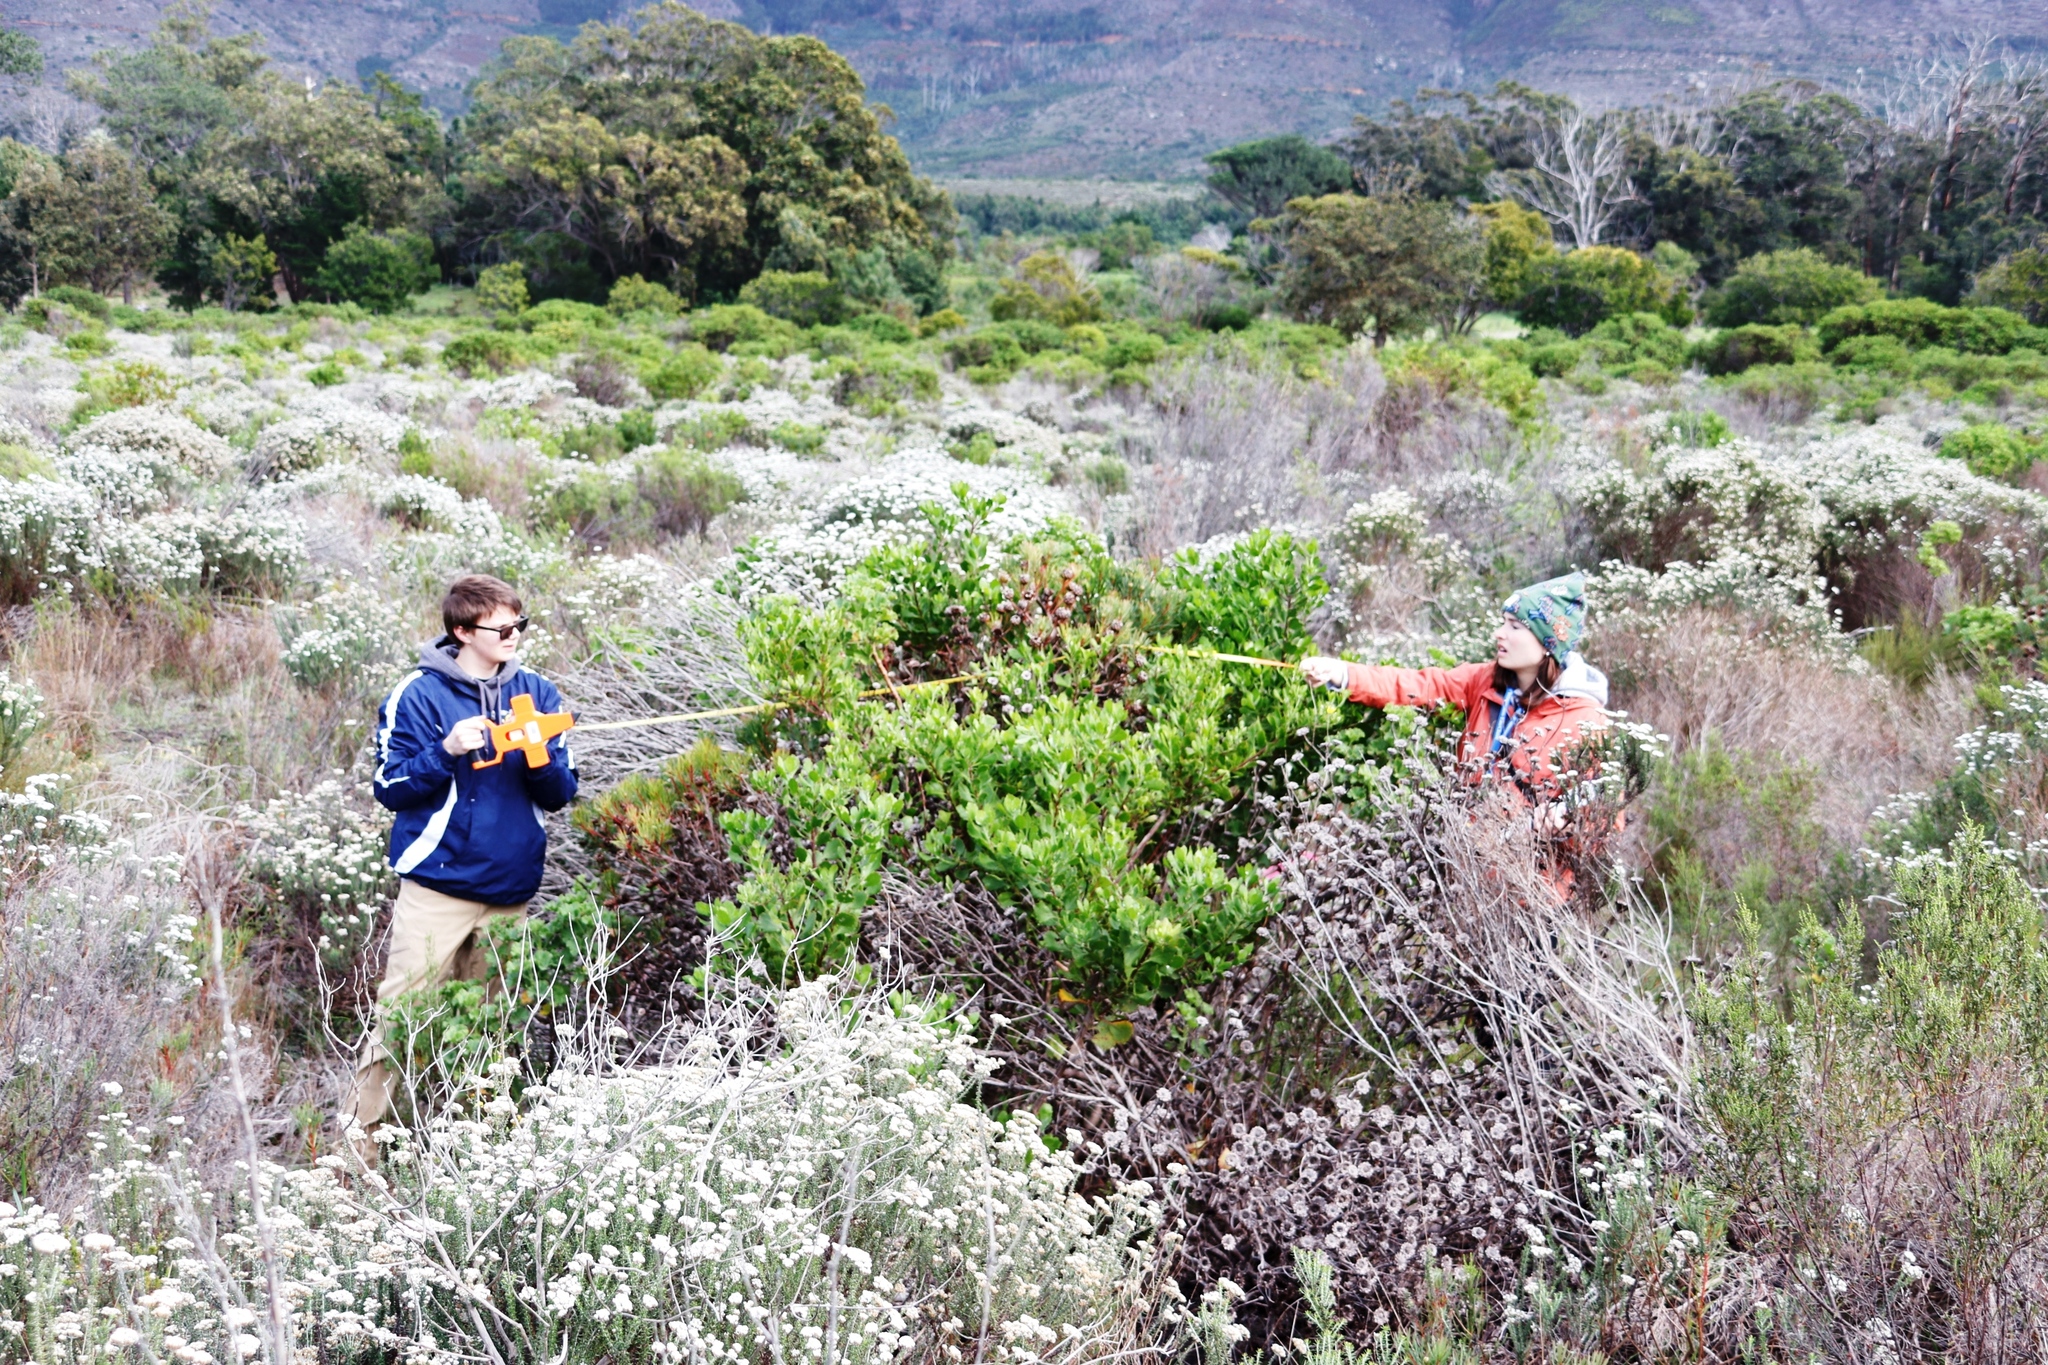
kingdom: Plantae
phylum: Tracheophyta
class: Magnoliopsida
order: Asterales
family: Asteraceae
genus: Metalasia
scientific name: Metalasia densa
